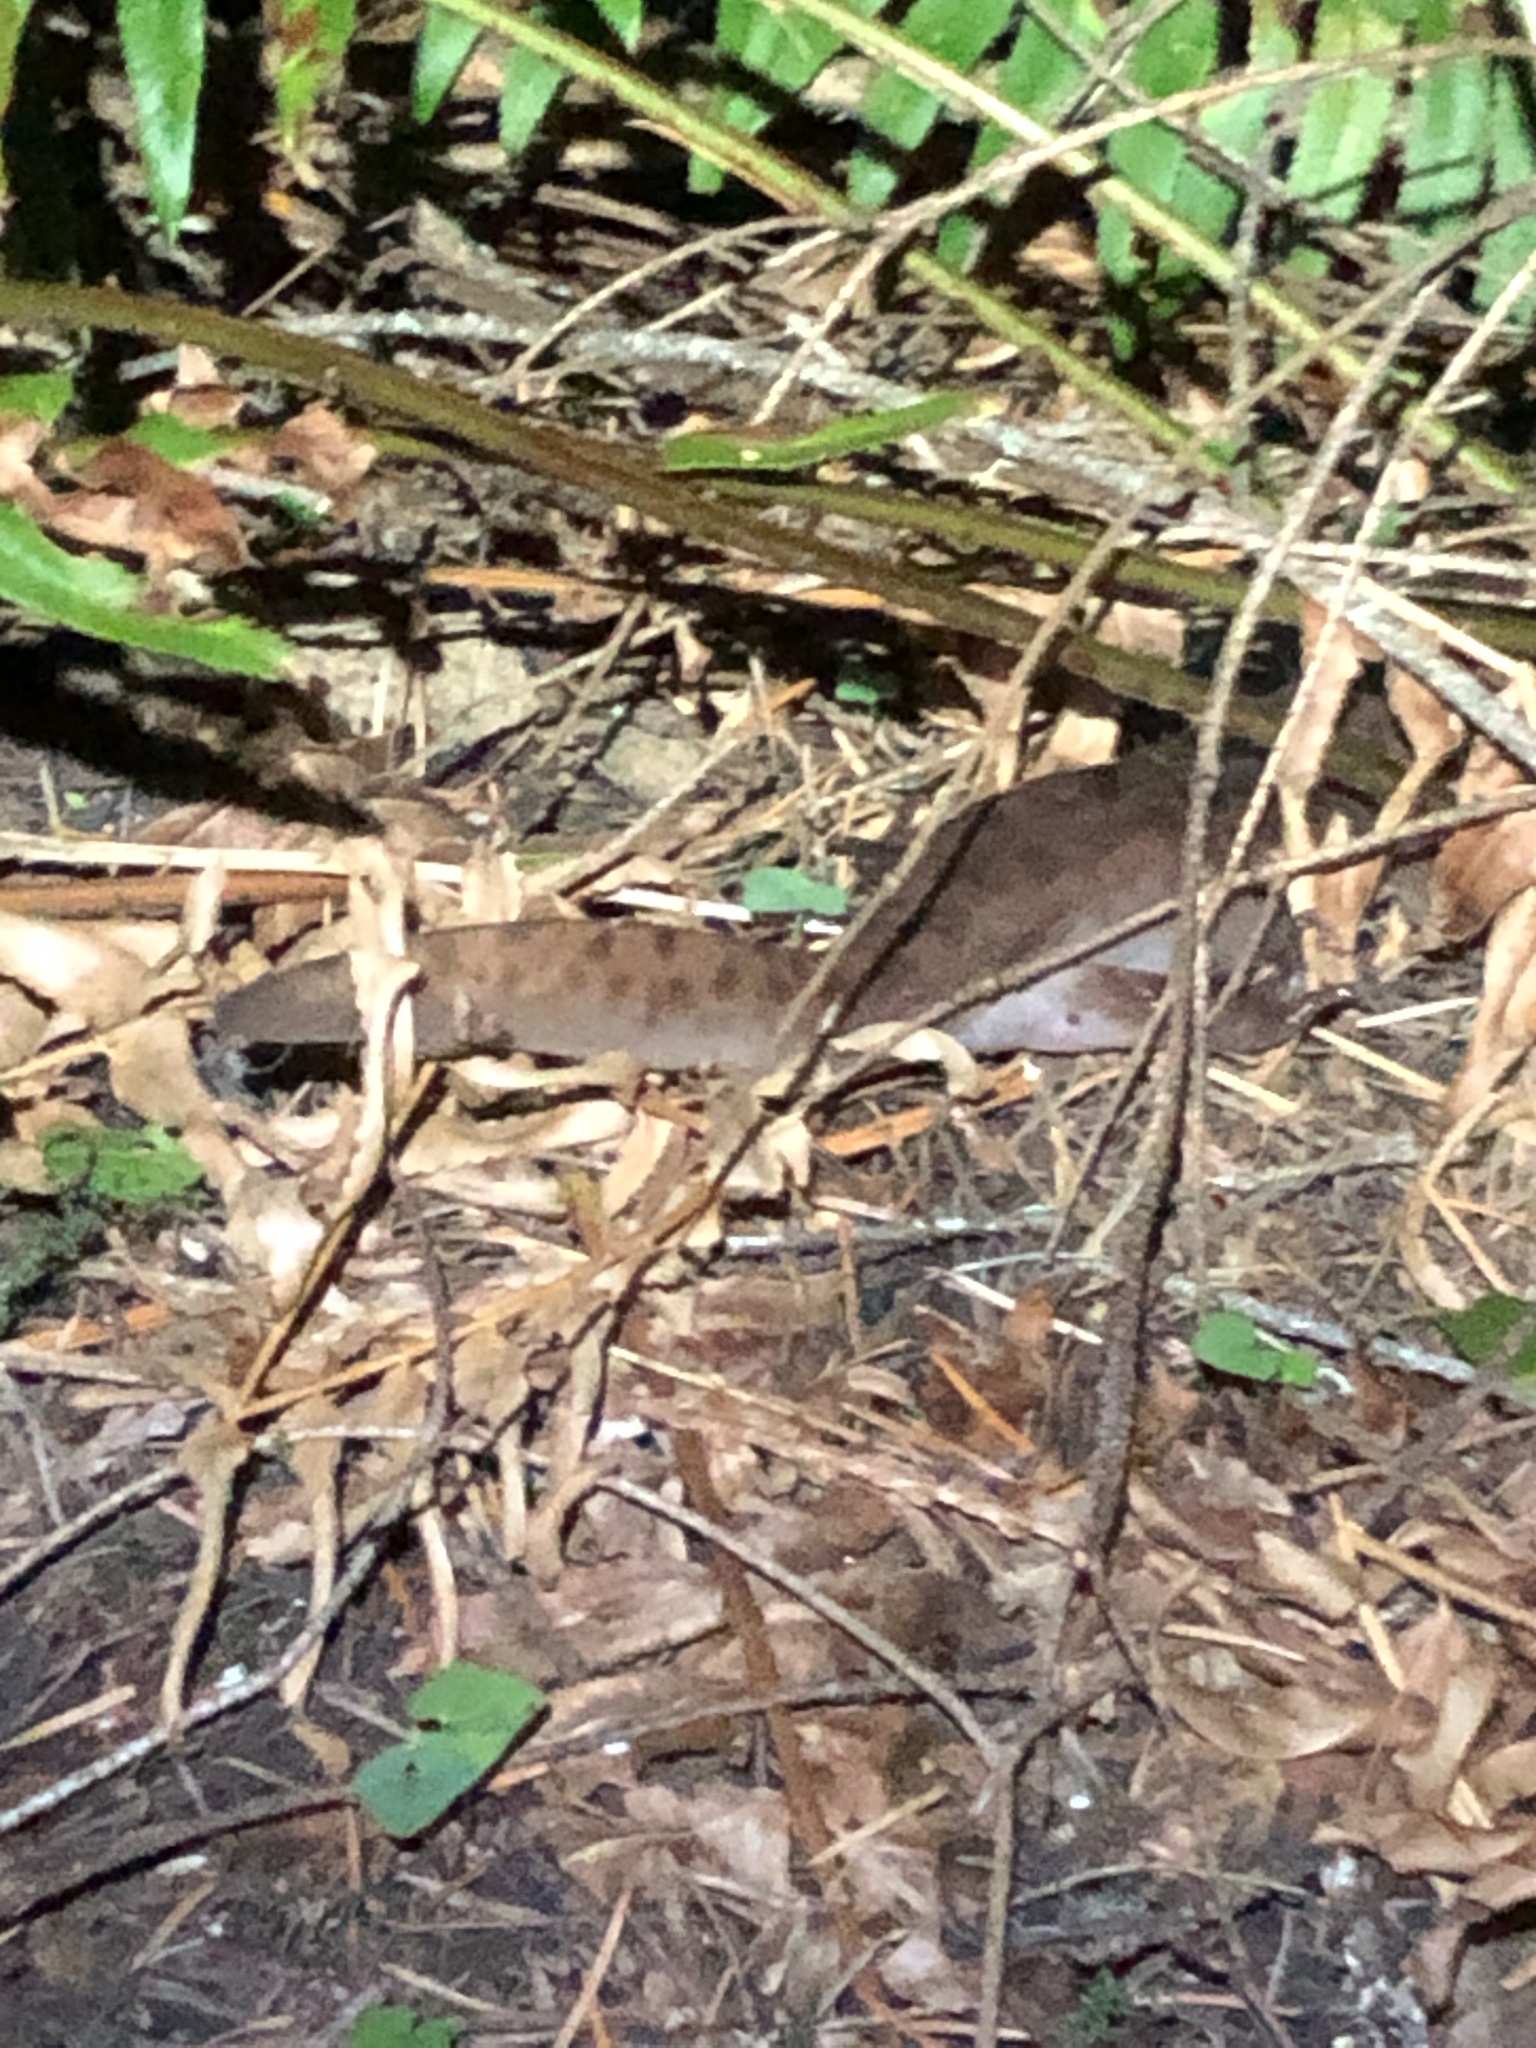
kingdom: Animalia
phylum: Chordata
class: Amphibia
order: Caudata
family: Ambystomatidae
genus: Dicamptodon
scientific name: Dicamptodon tenebrosus
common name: Coastal giant salamander
